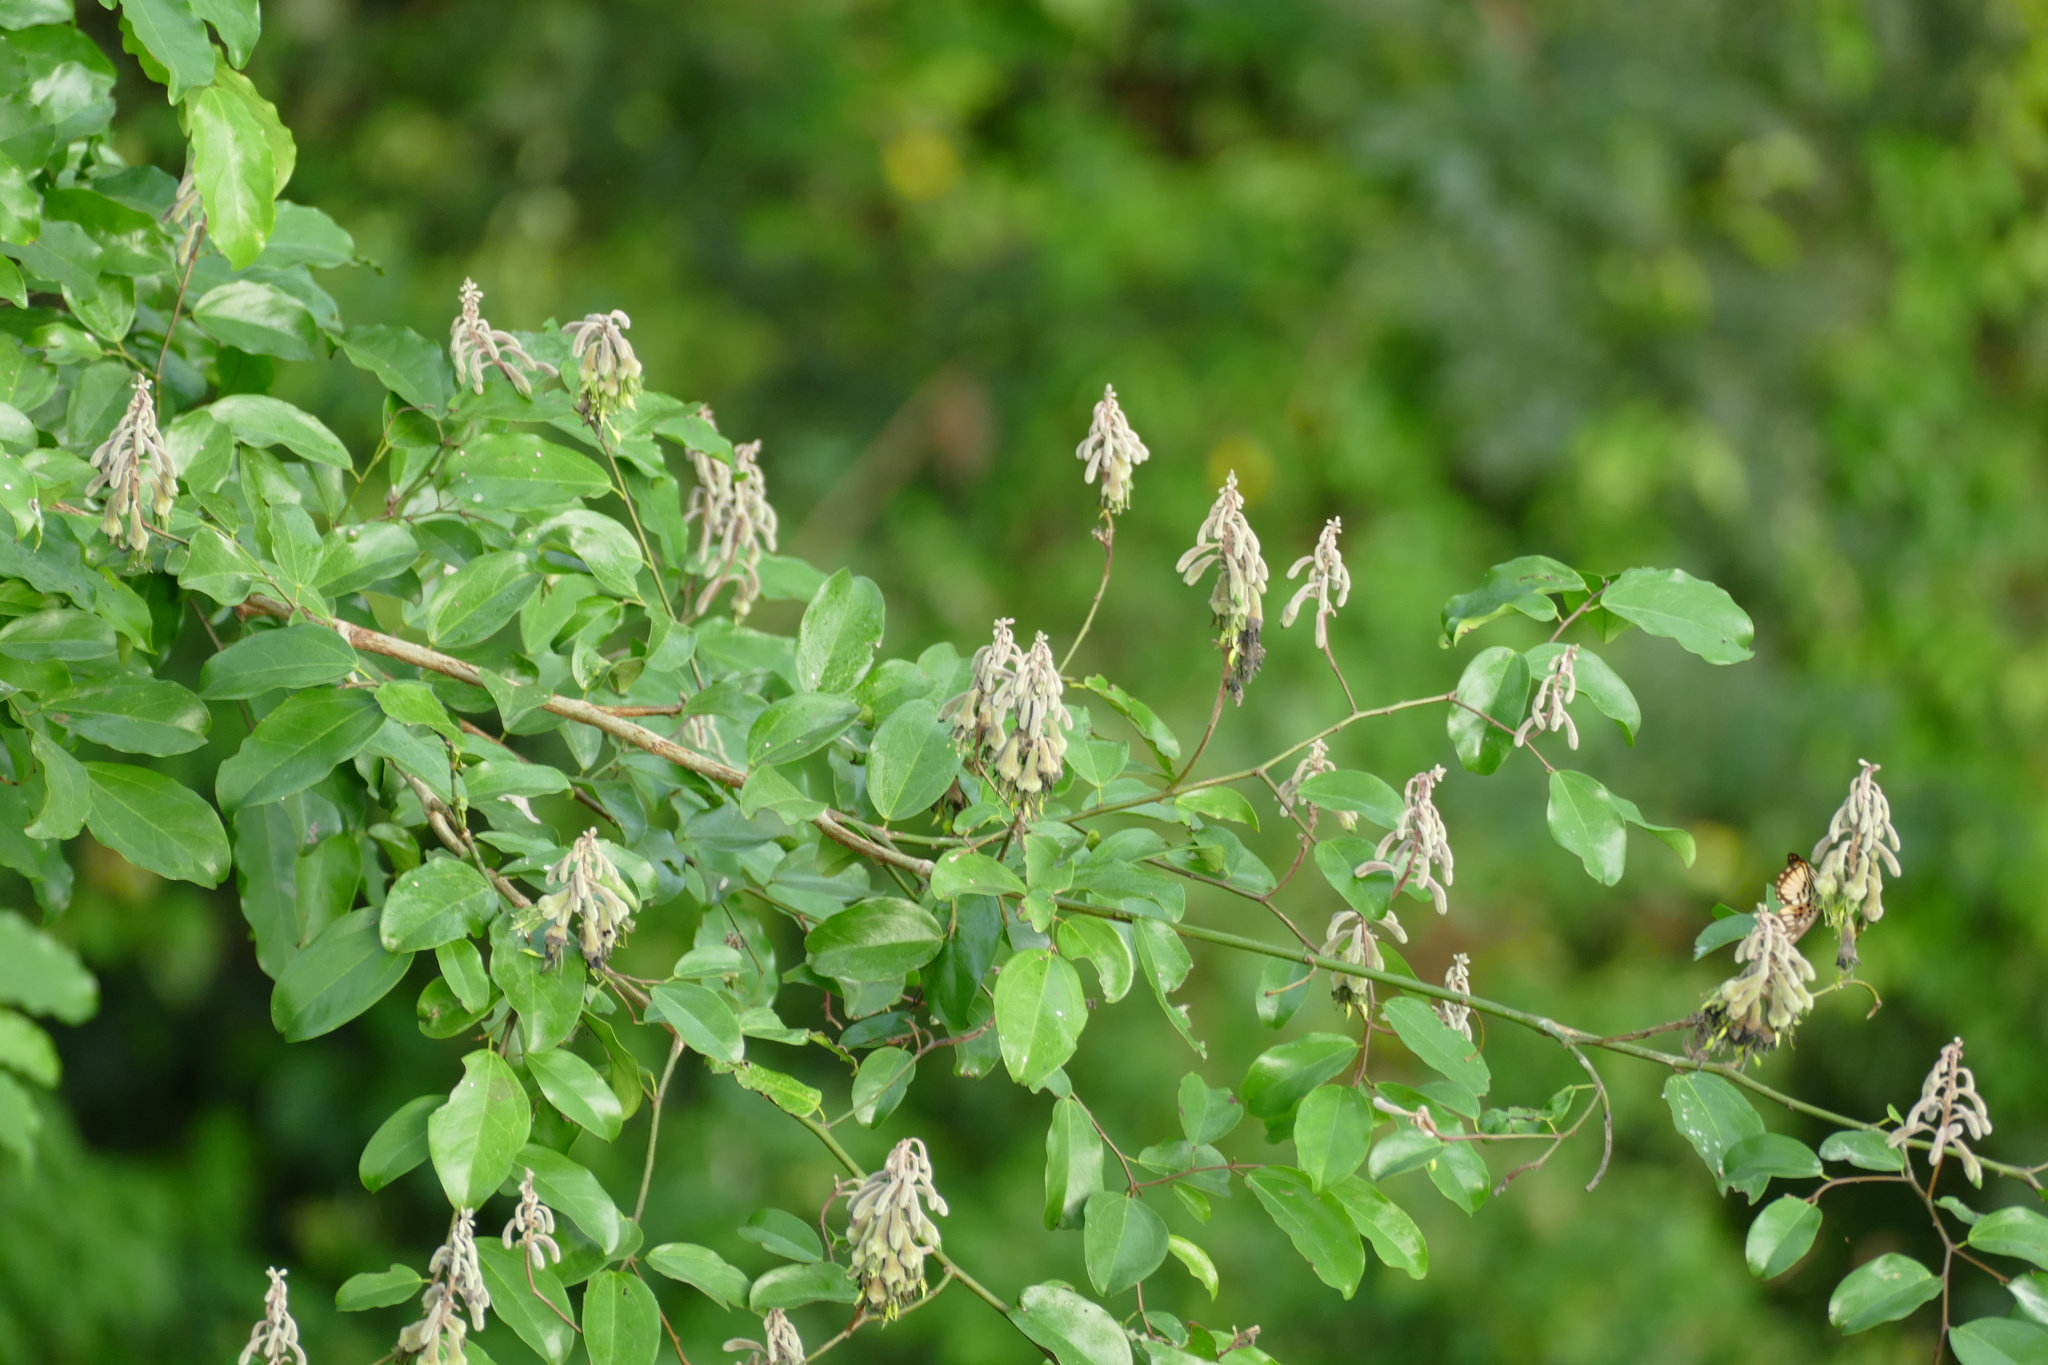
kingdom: Plantae
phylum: Tracheophyta
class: Magnoliopsida
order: Fabales
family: Fabaceae
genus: Griffonia
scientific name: Griffonia simplicifolia
